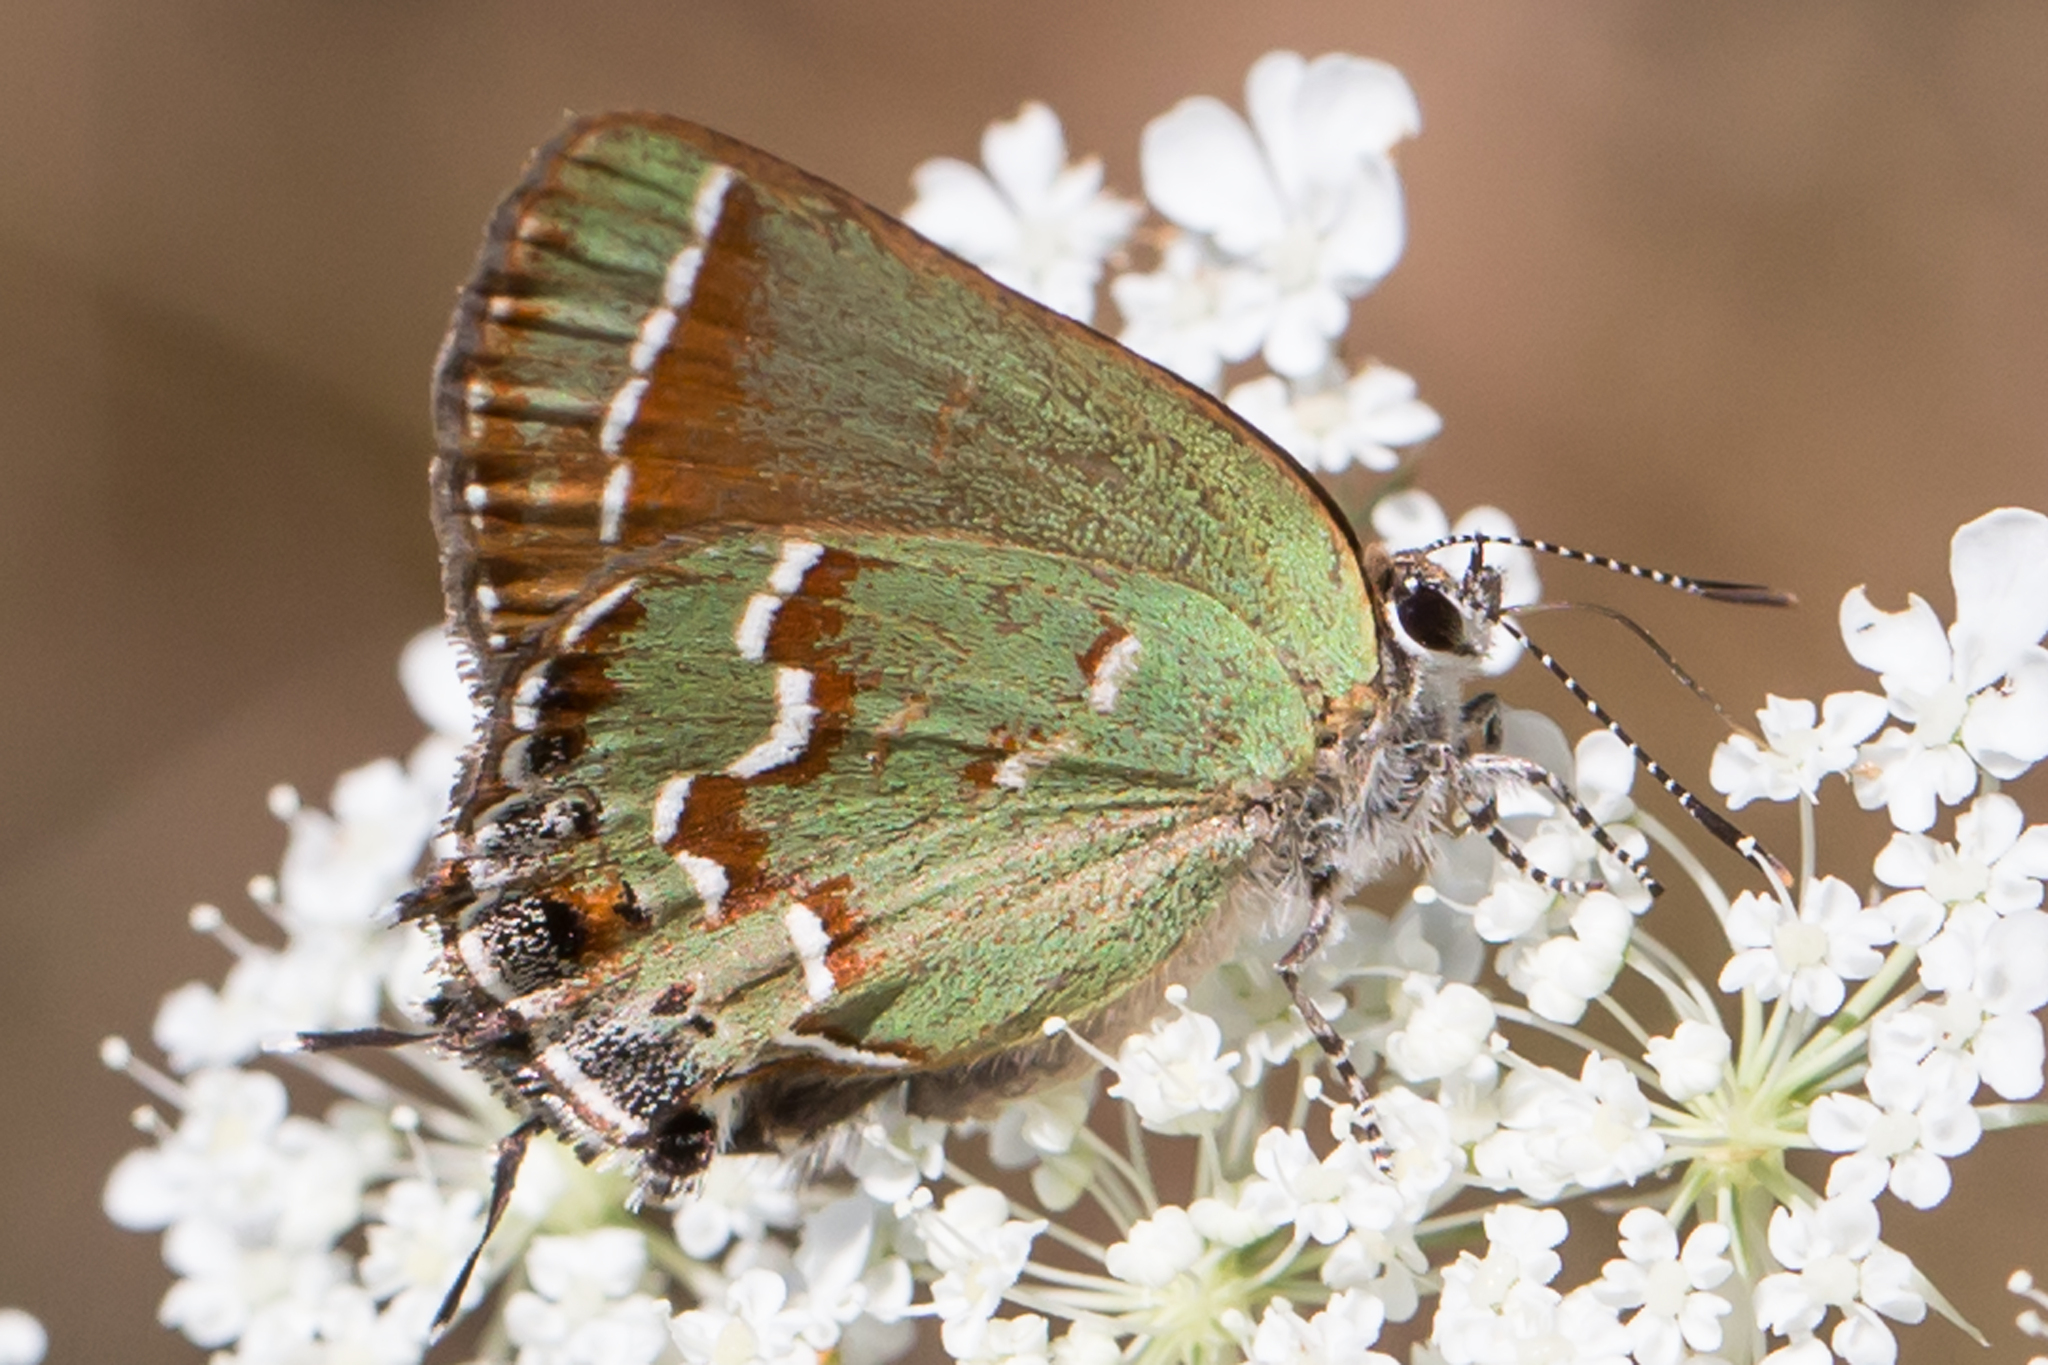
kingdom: Animalia
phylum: Arthropoda
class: Insecta
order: Lepidoptera
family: Lycaenidae
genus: Mitoura
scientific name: Mitoura gryneus
